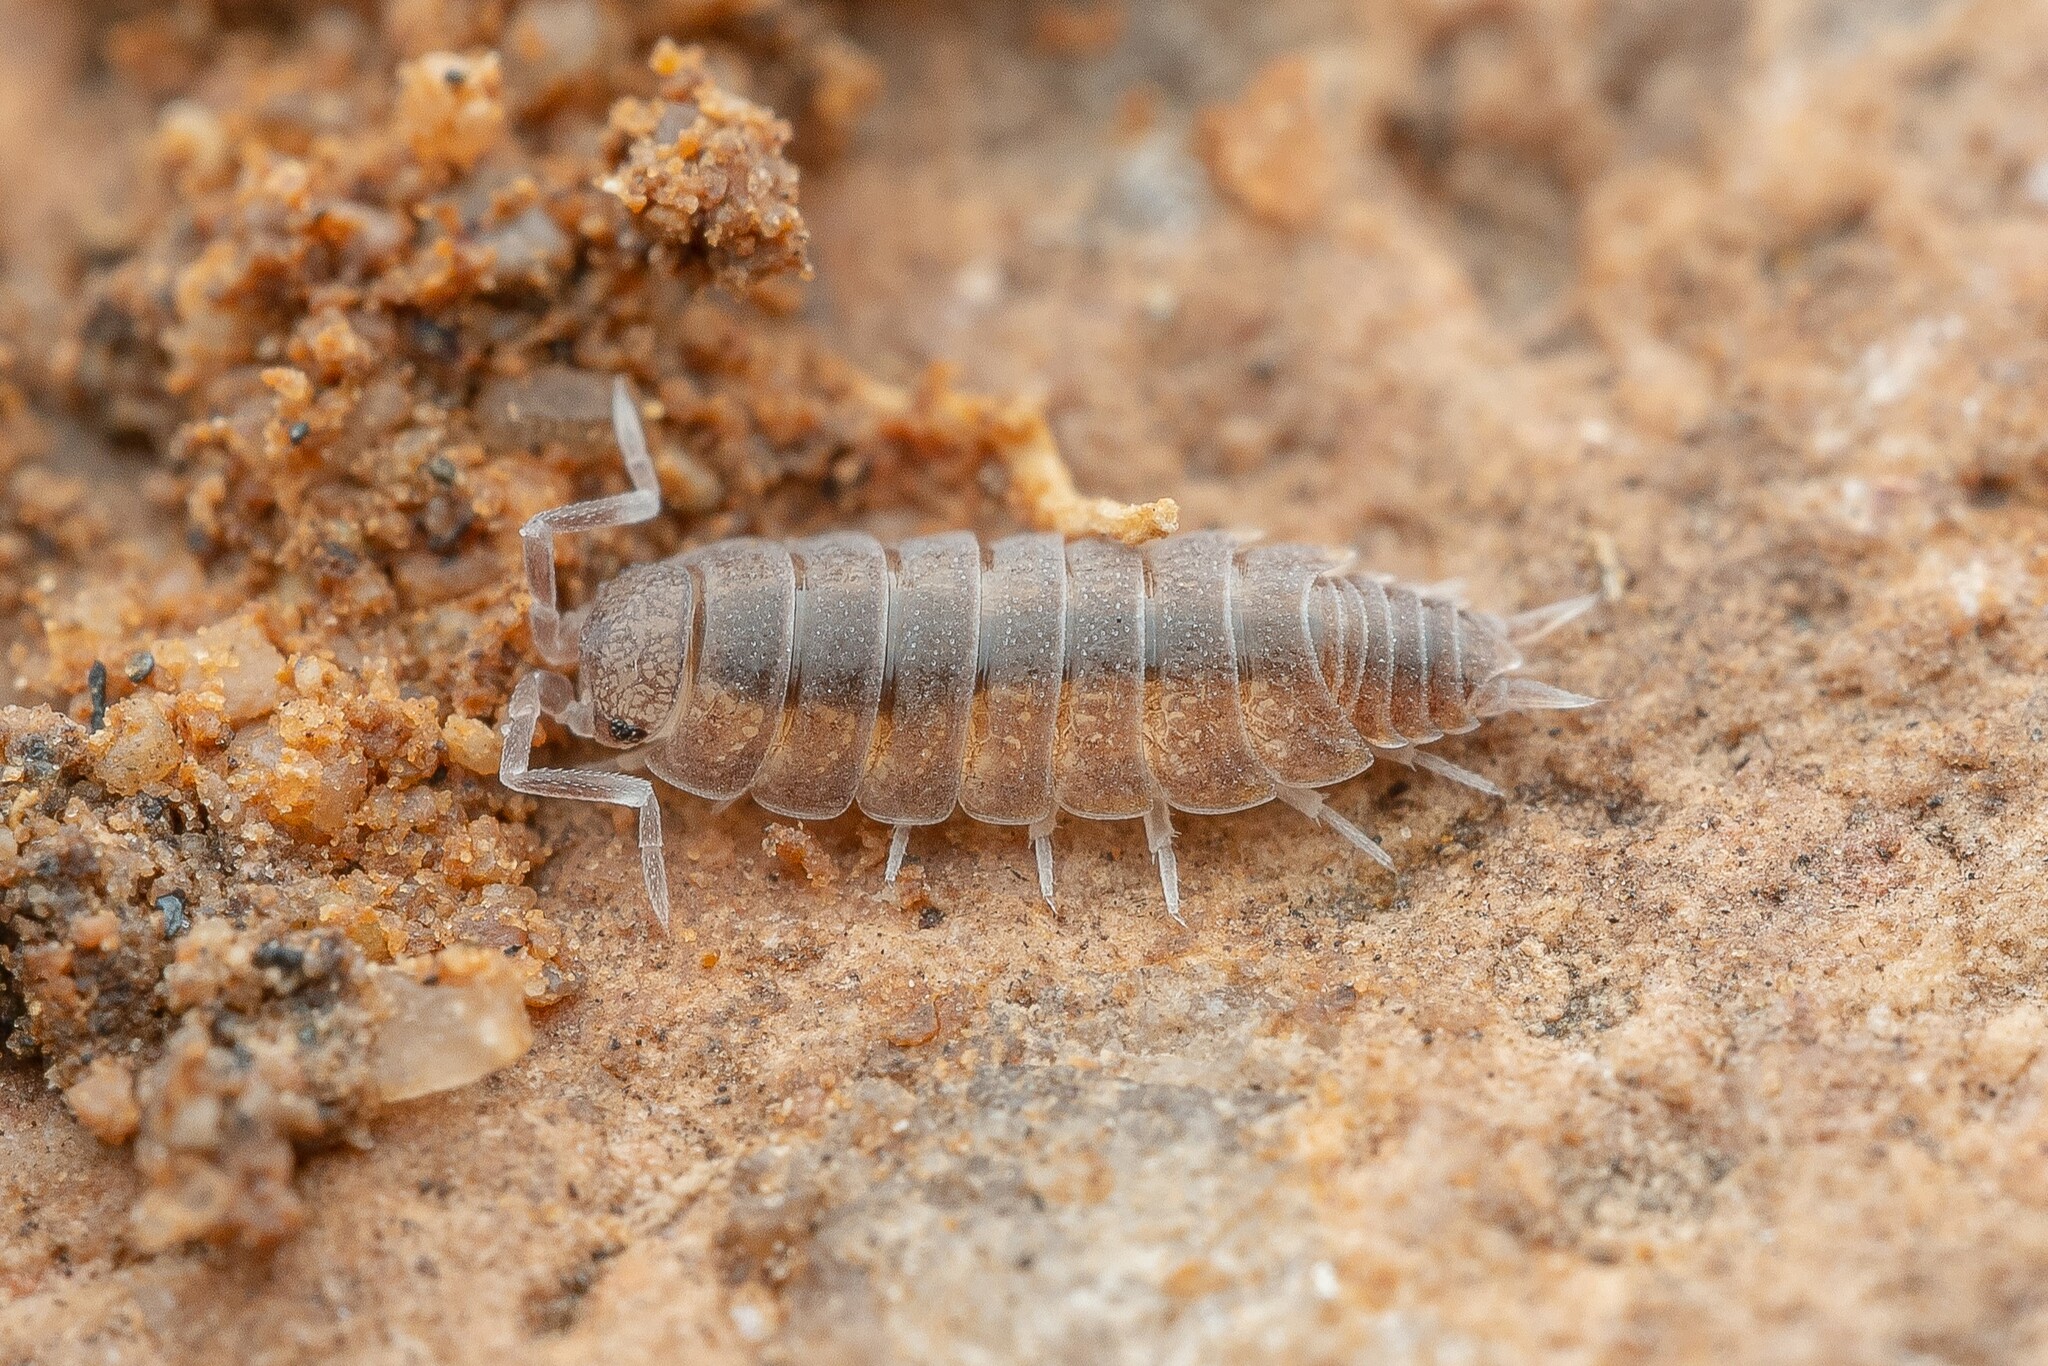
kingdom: Animalia
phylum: Arthropoda
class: Malacostraca
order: Isopoda
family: Porcellionidae
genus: Porcellionides
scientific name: Porcellionides
